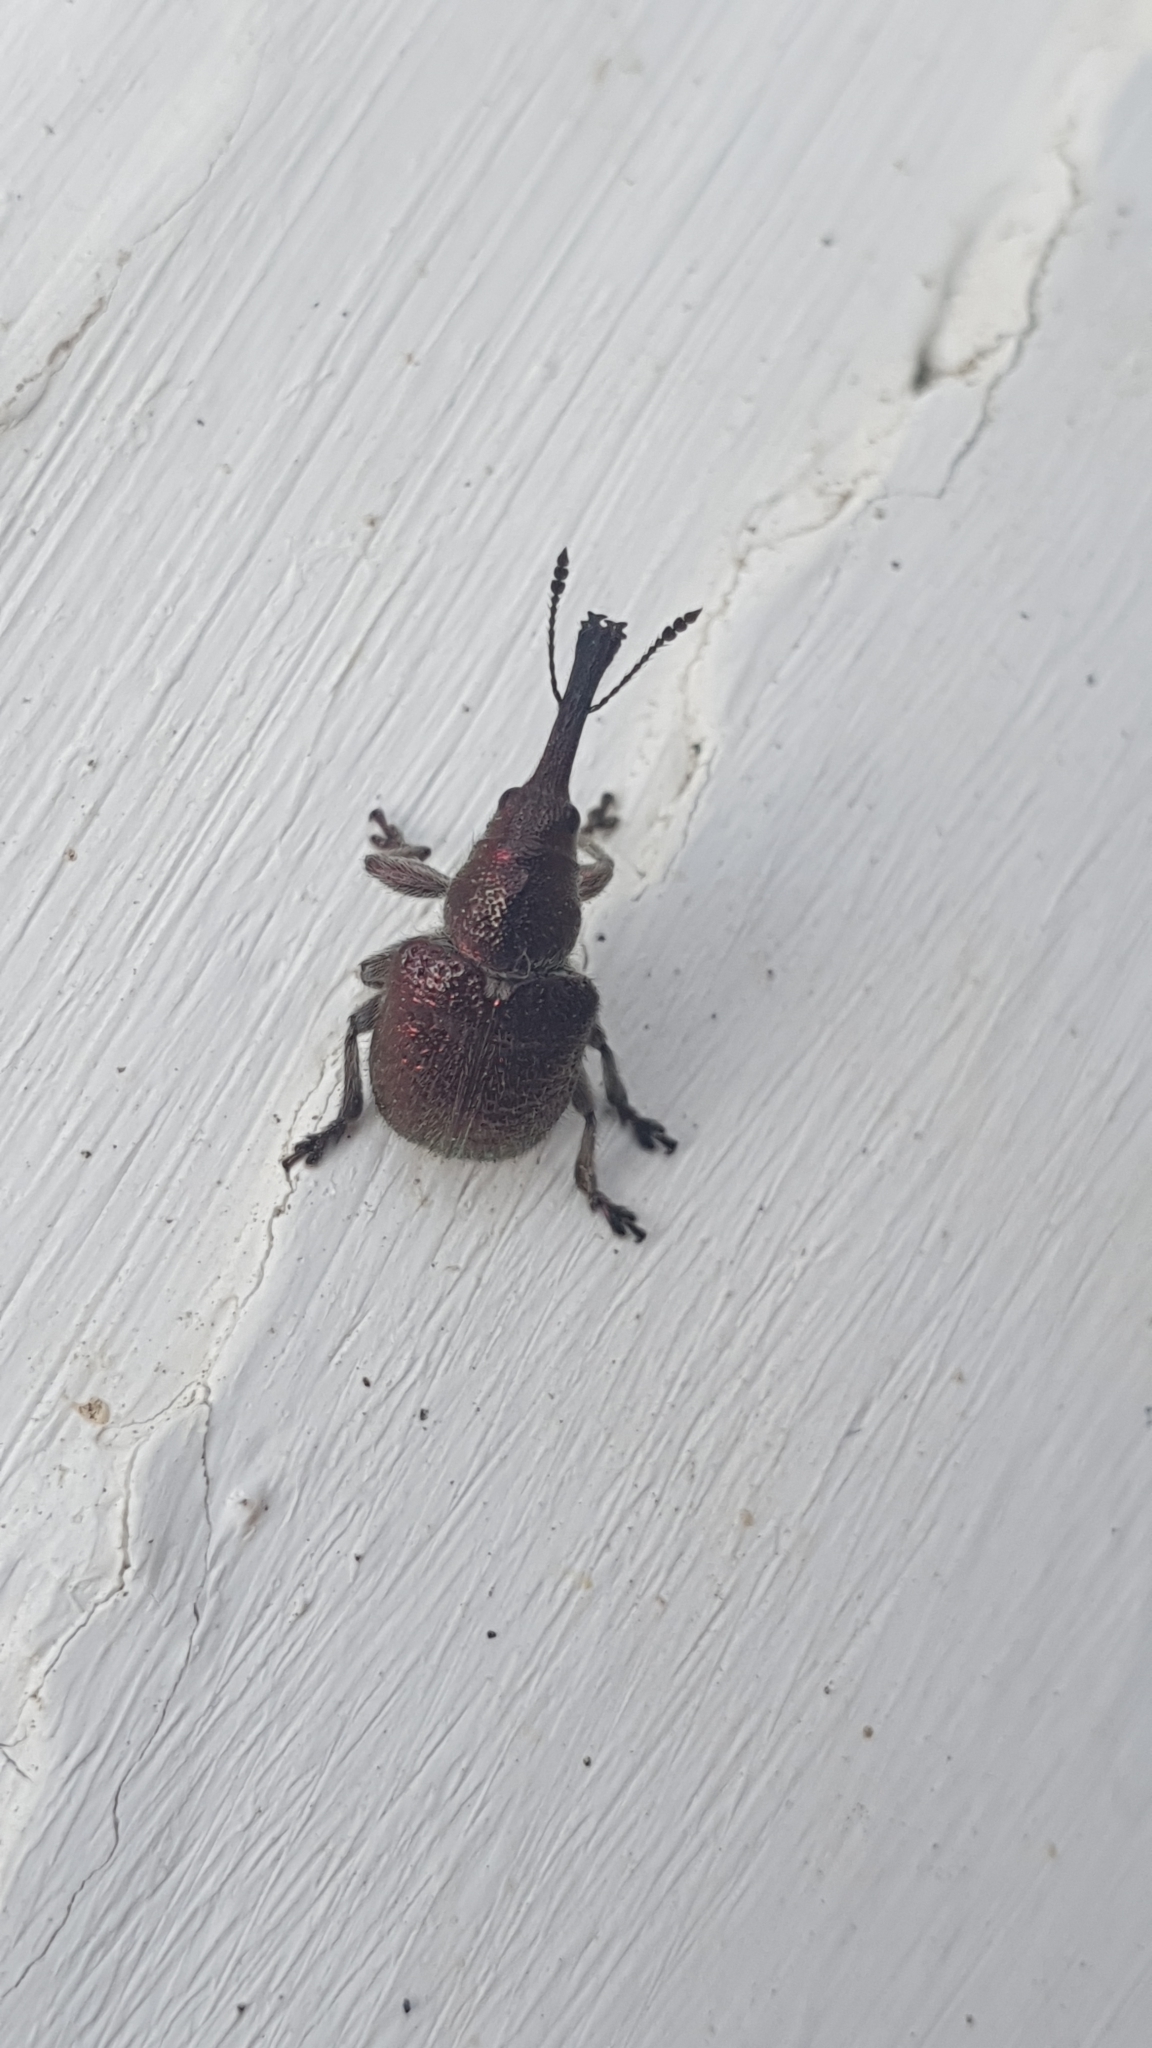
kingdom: Animalia
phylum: Arthropoda
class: Insecta
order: Coleoptera
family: Attelabidae
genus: Rhynchites
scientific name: Rhynchites bacchus
